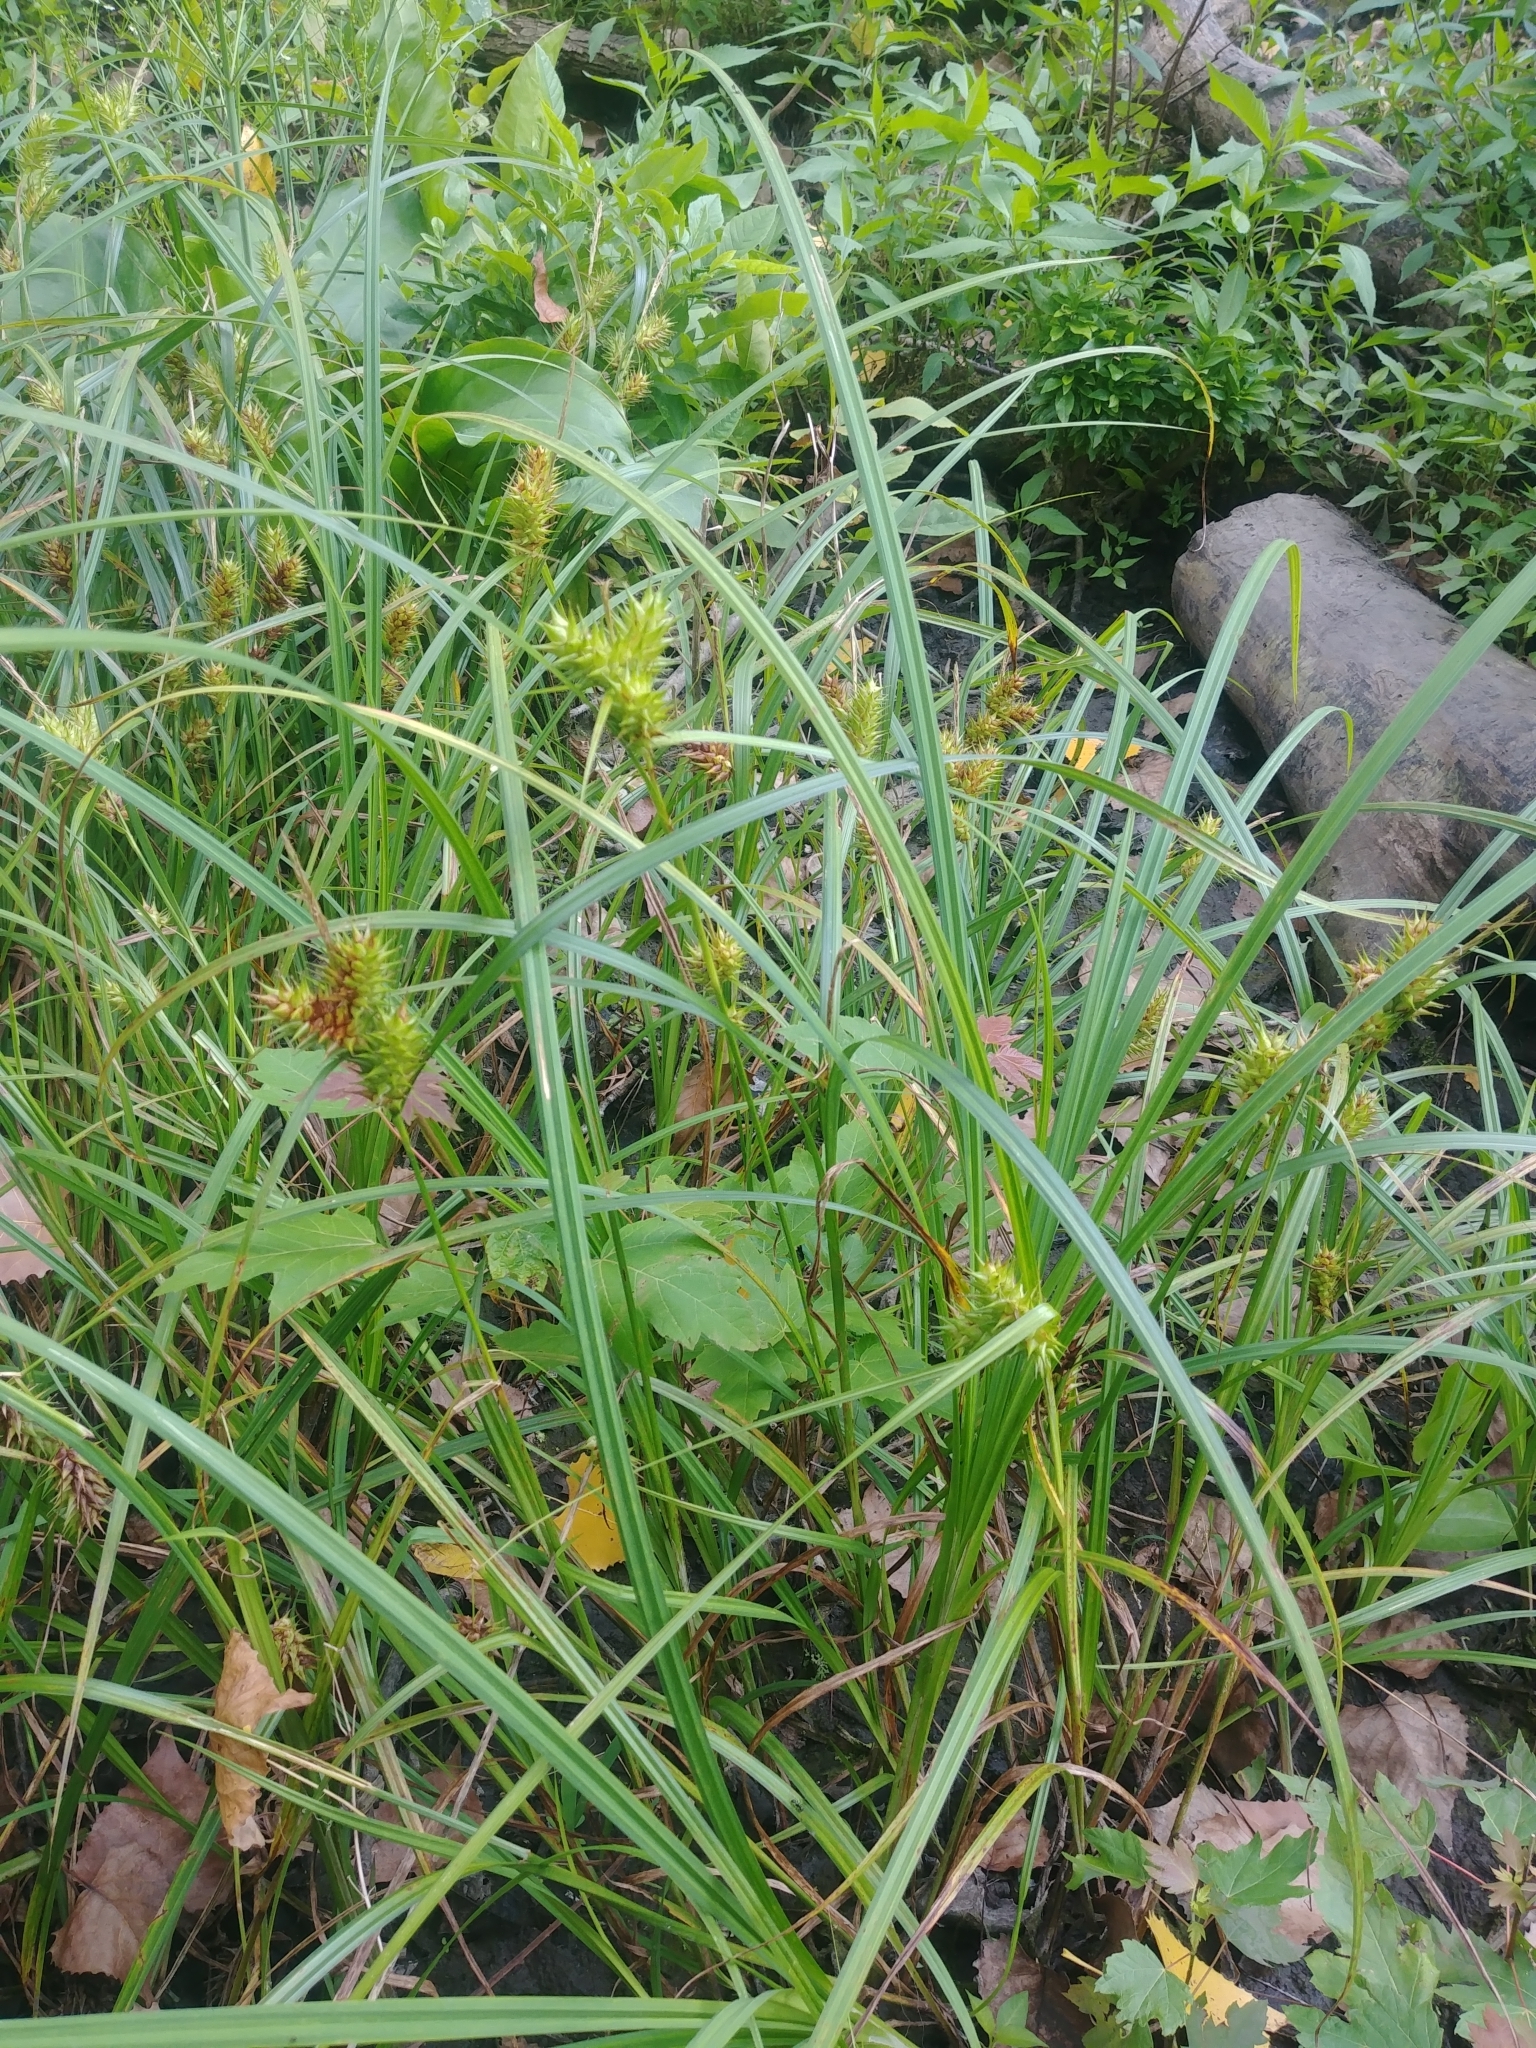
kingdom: Plantae
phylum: Tracheophyta
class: Liliopsida
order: Poales
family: Cyperaceae
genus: Carex
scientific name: Carex lupulina
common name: Hop sedge
